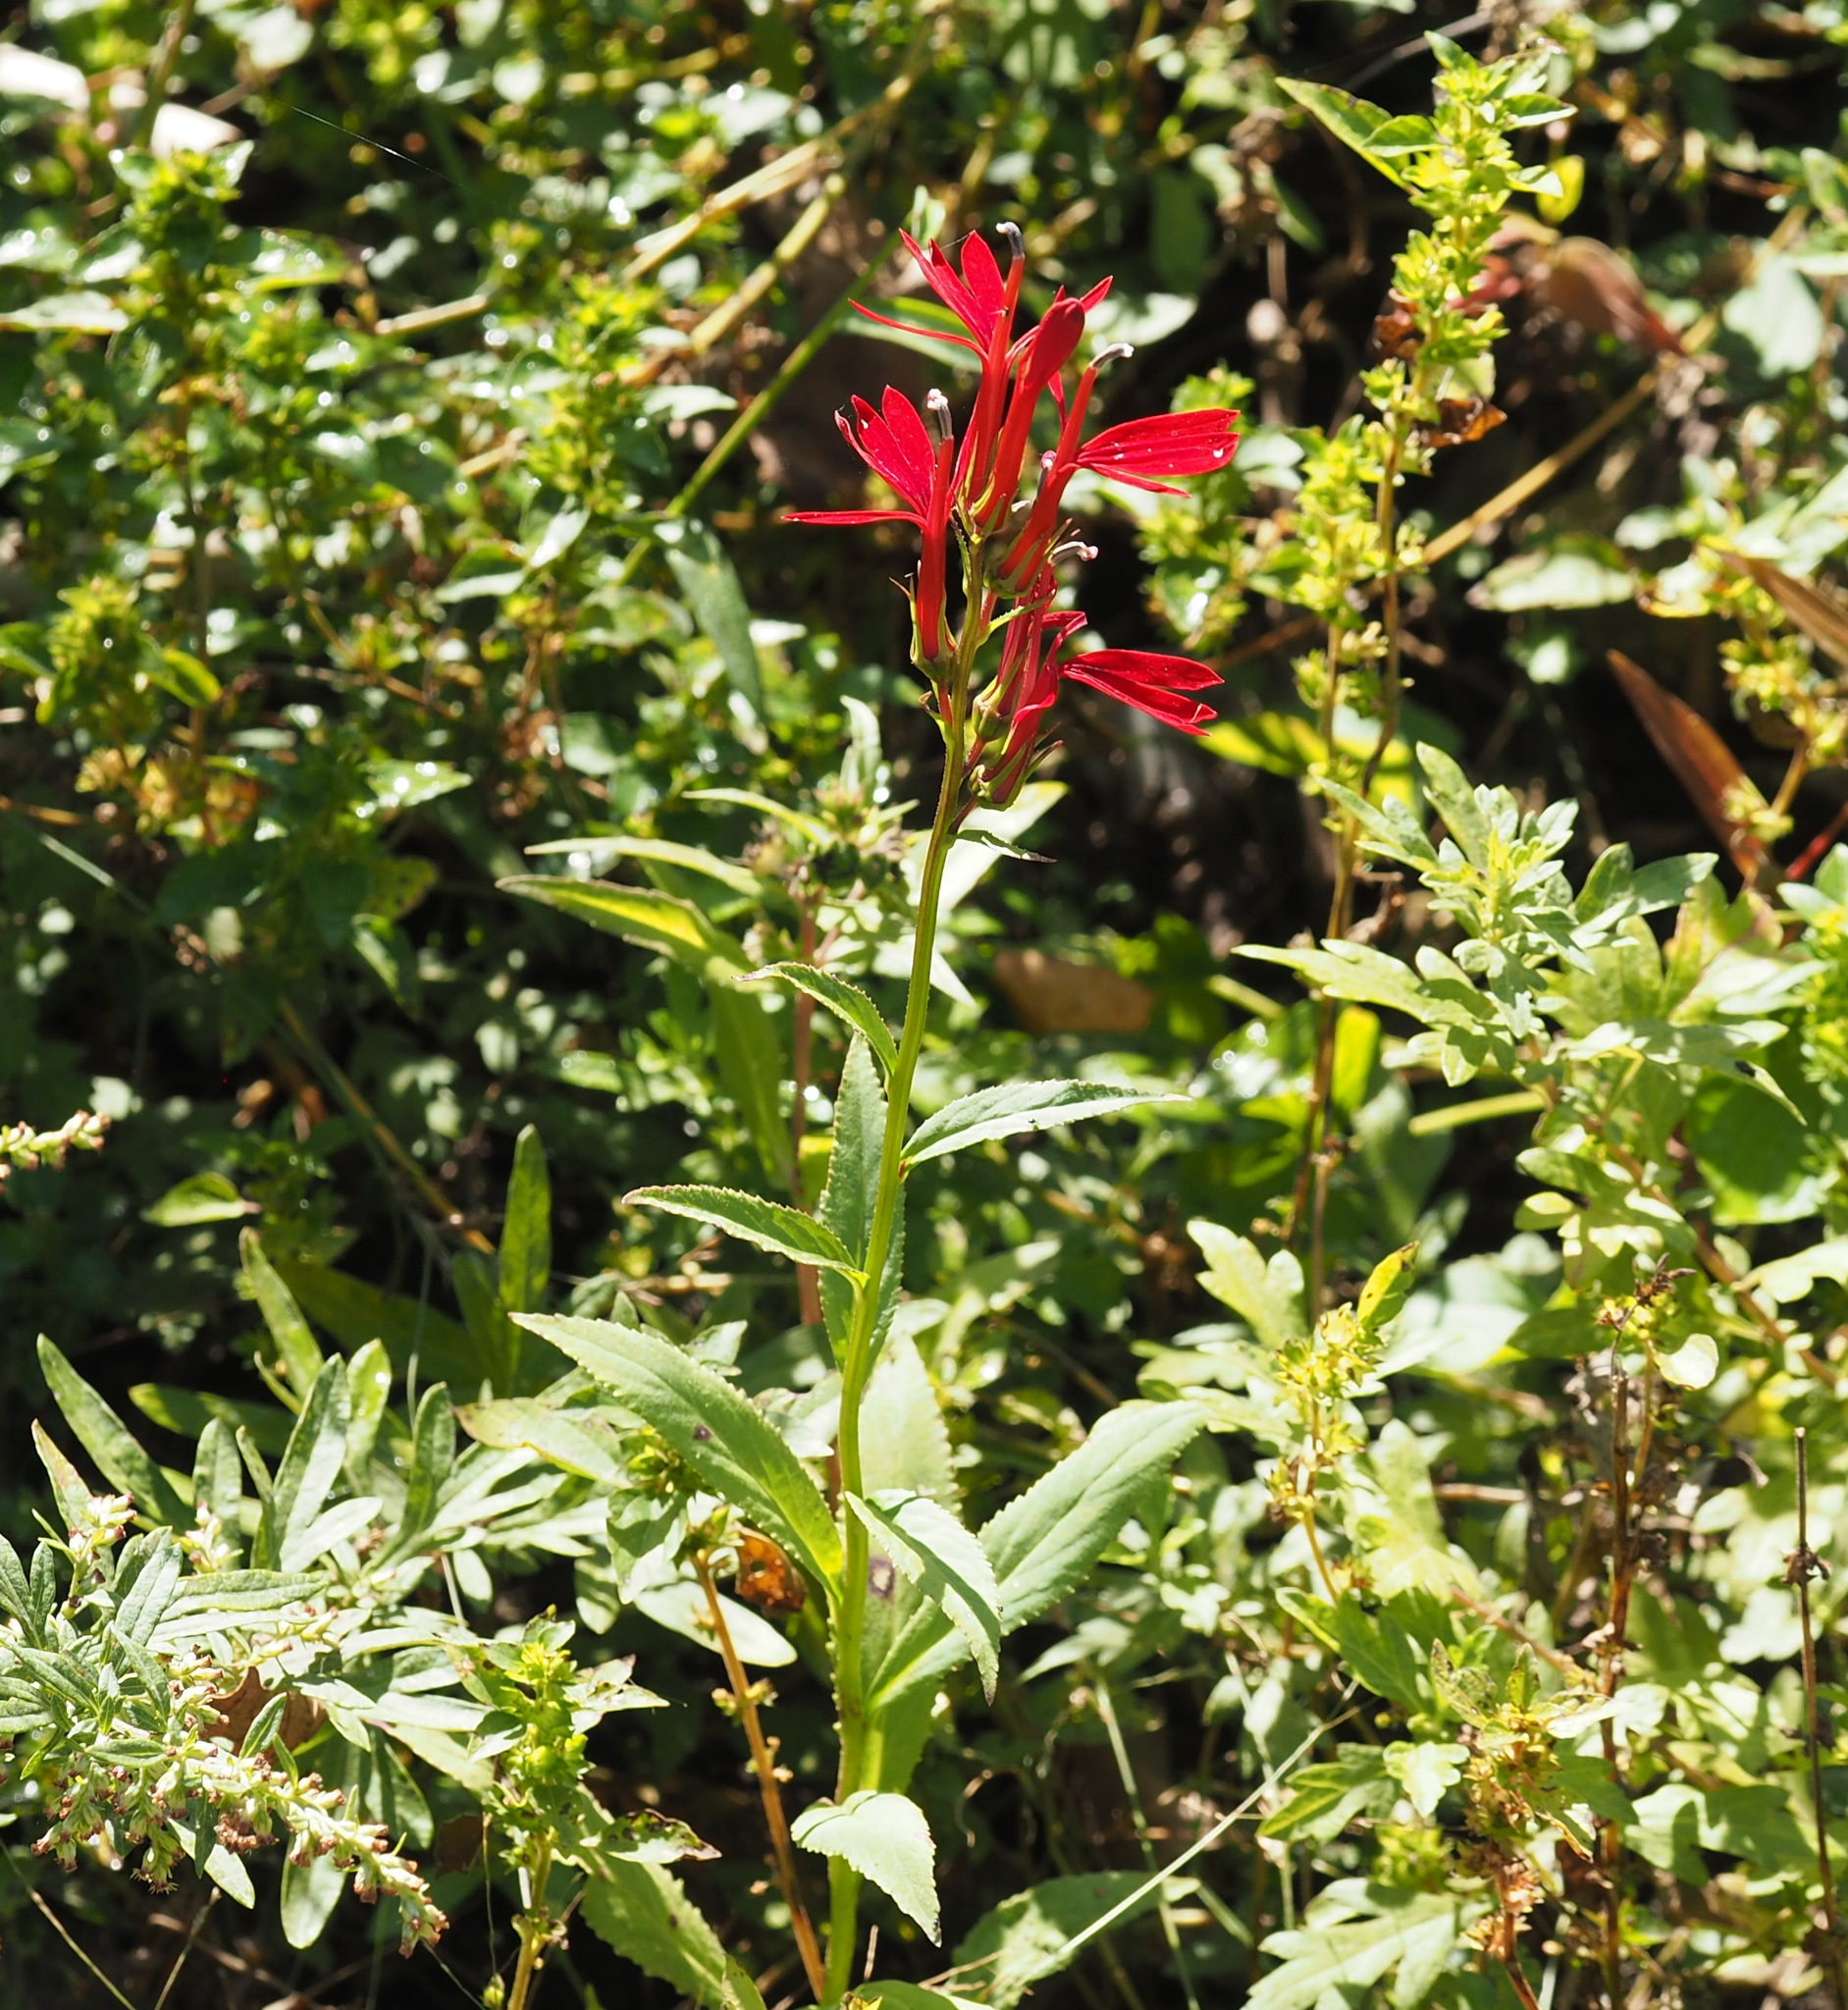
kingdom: Plantae
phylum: Tracheophyta
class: Magnoliopsida
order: Asterales
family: Campanulaceae
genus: Lobelia
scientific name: Lobelia cardinalis
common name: Cardinal flower
